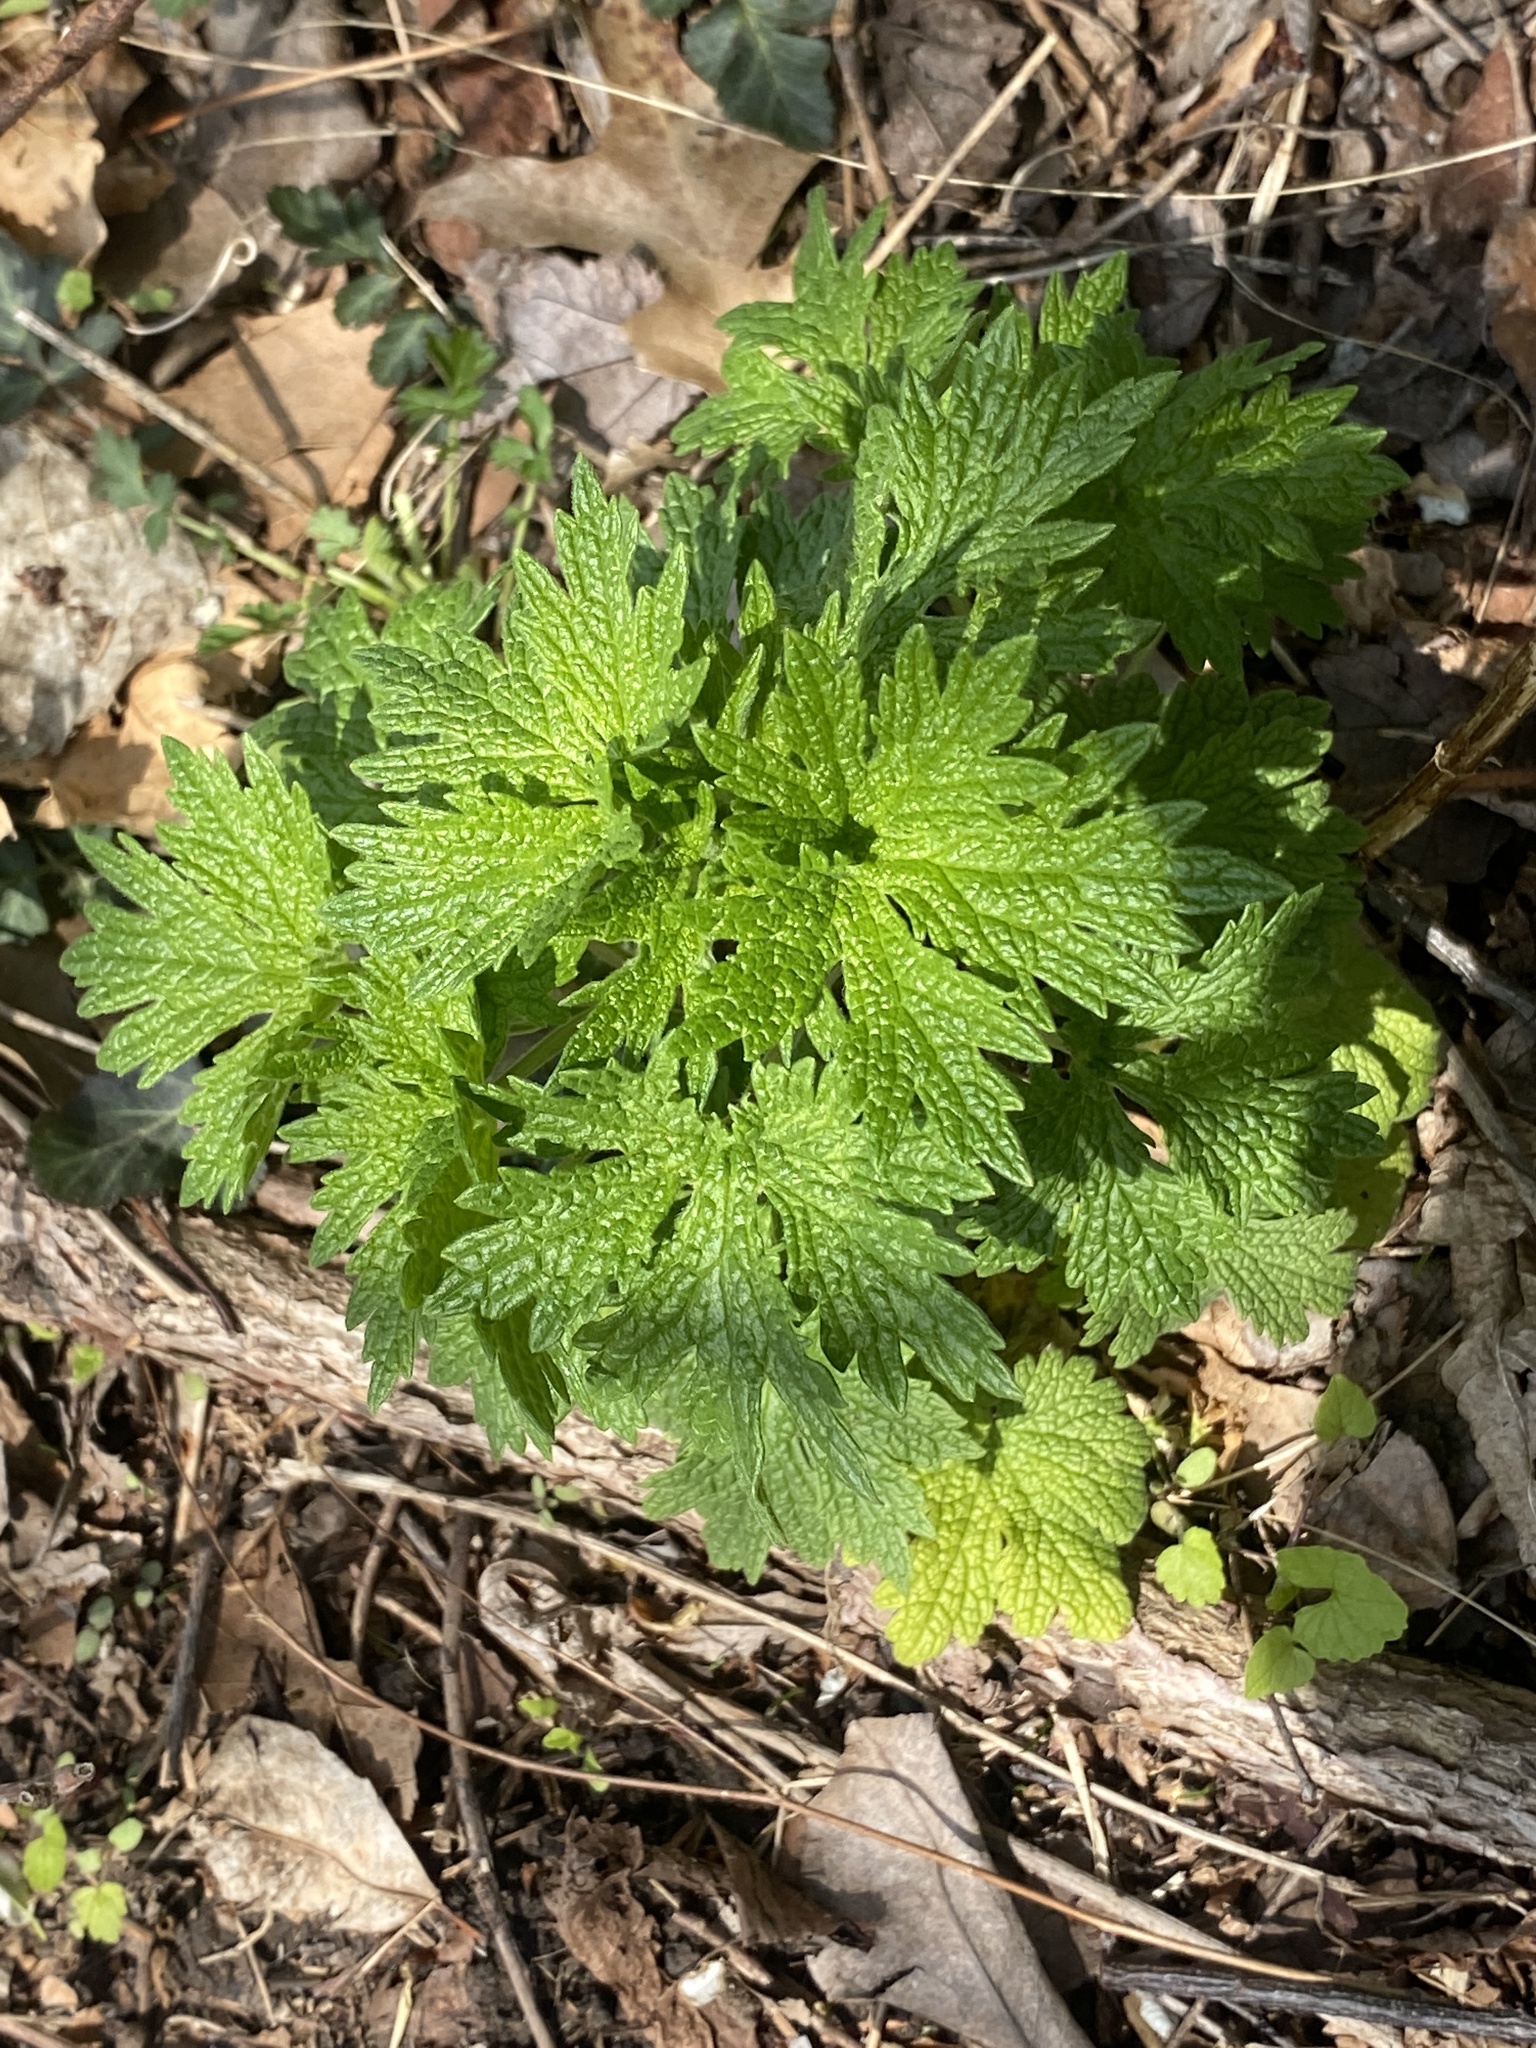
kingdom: Plantae
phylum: Tracheophyta
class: Magnoliopsida
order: Lamiales
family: Lamiaceae
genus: Leonurus
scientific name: Leonurus cardiaca
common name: Motherwort
